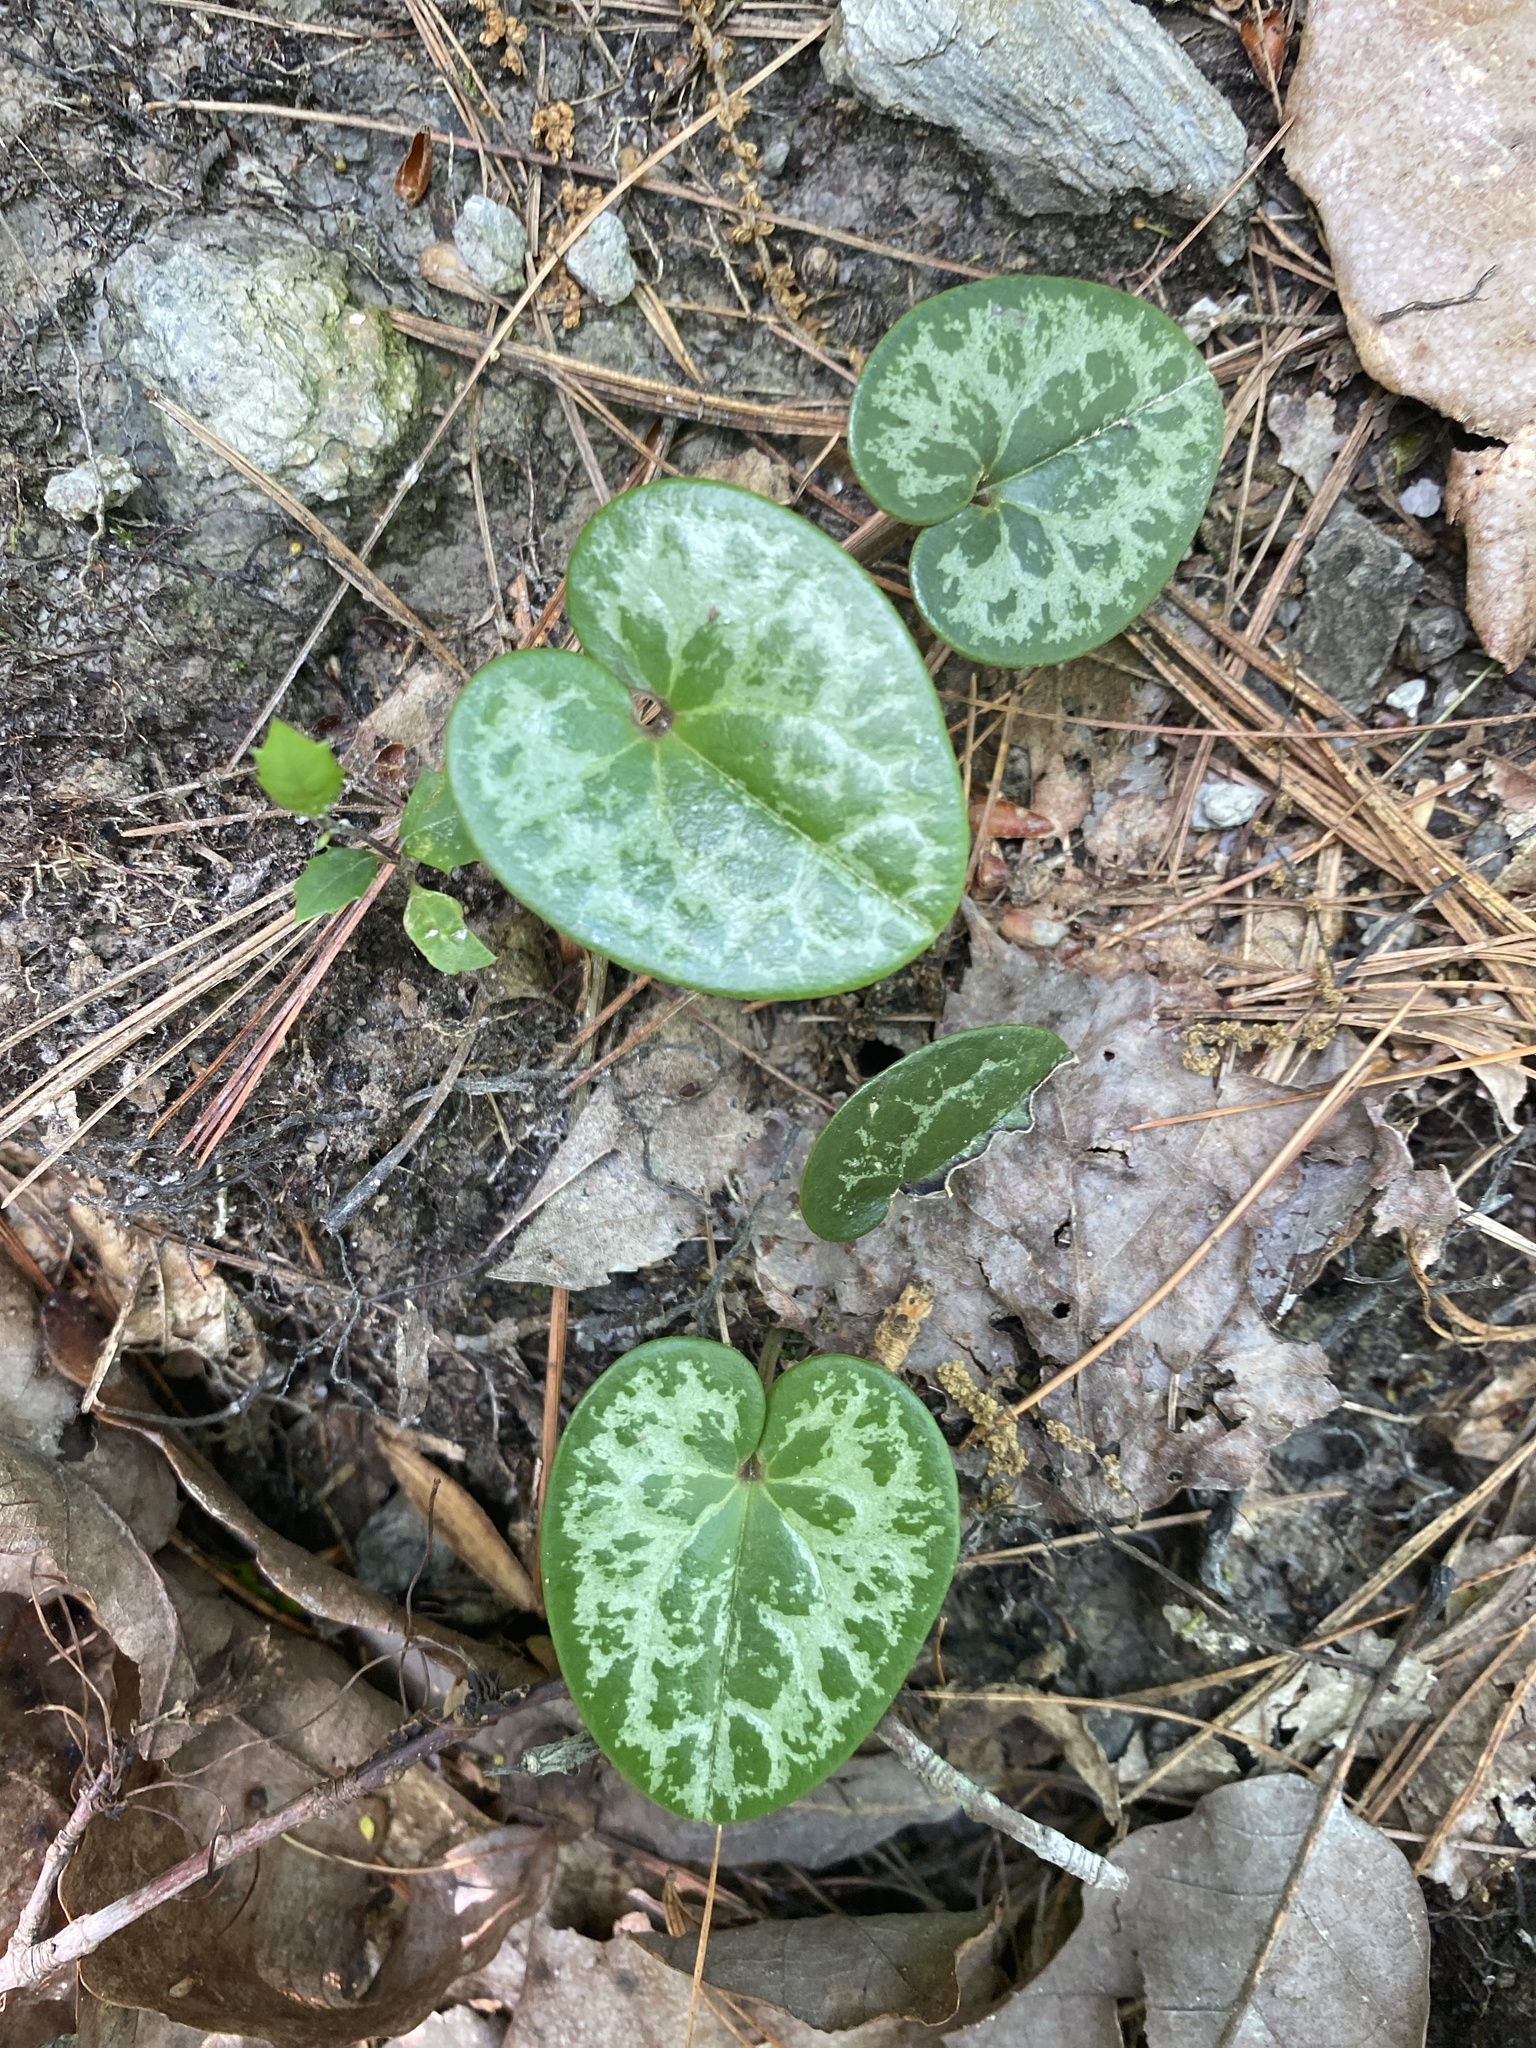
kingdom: Plantae
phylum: Tracheophyta
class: Magnoliopsida
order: Piperales
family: Aristolochiaceae
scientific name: Aristolochiaceae
